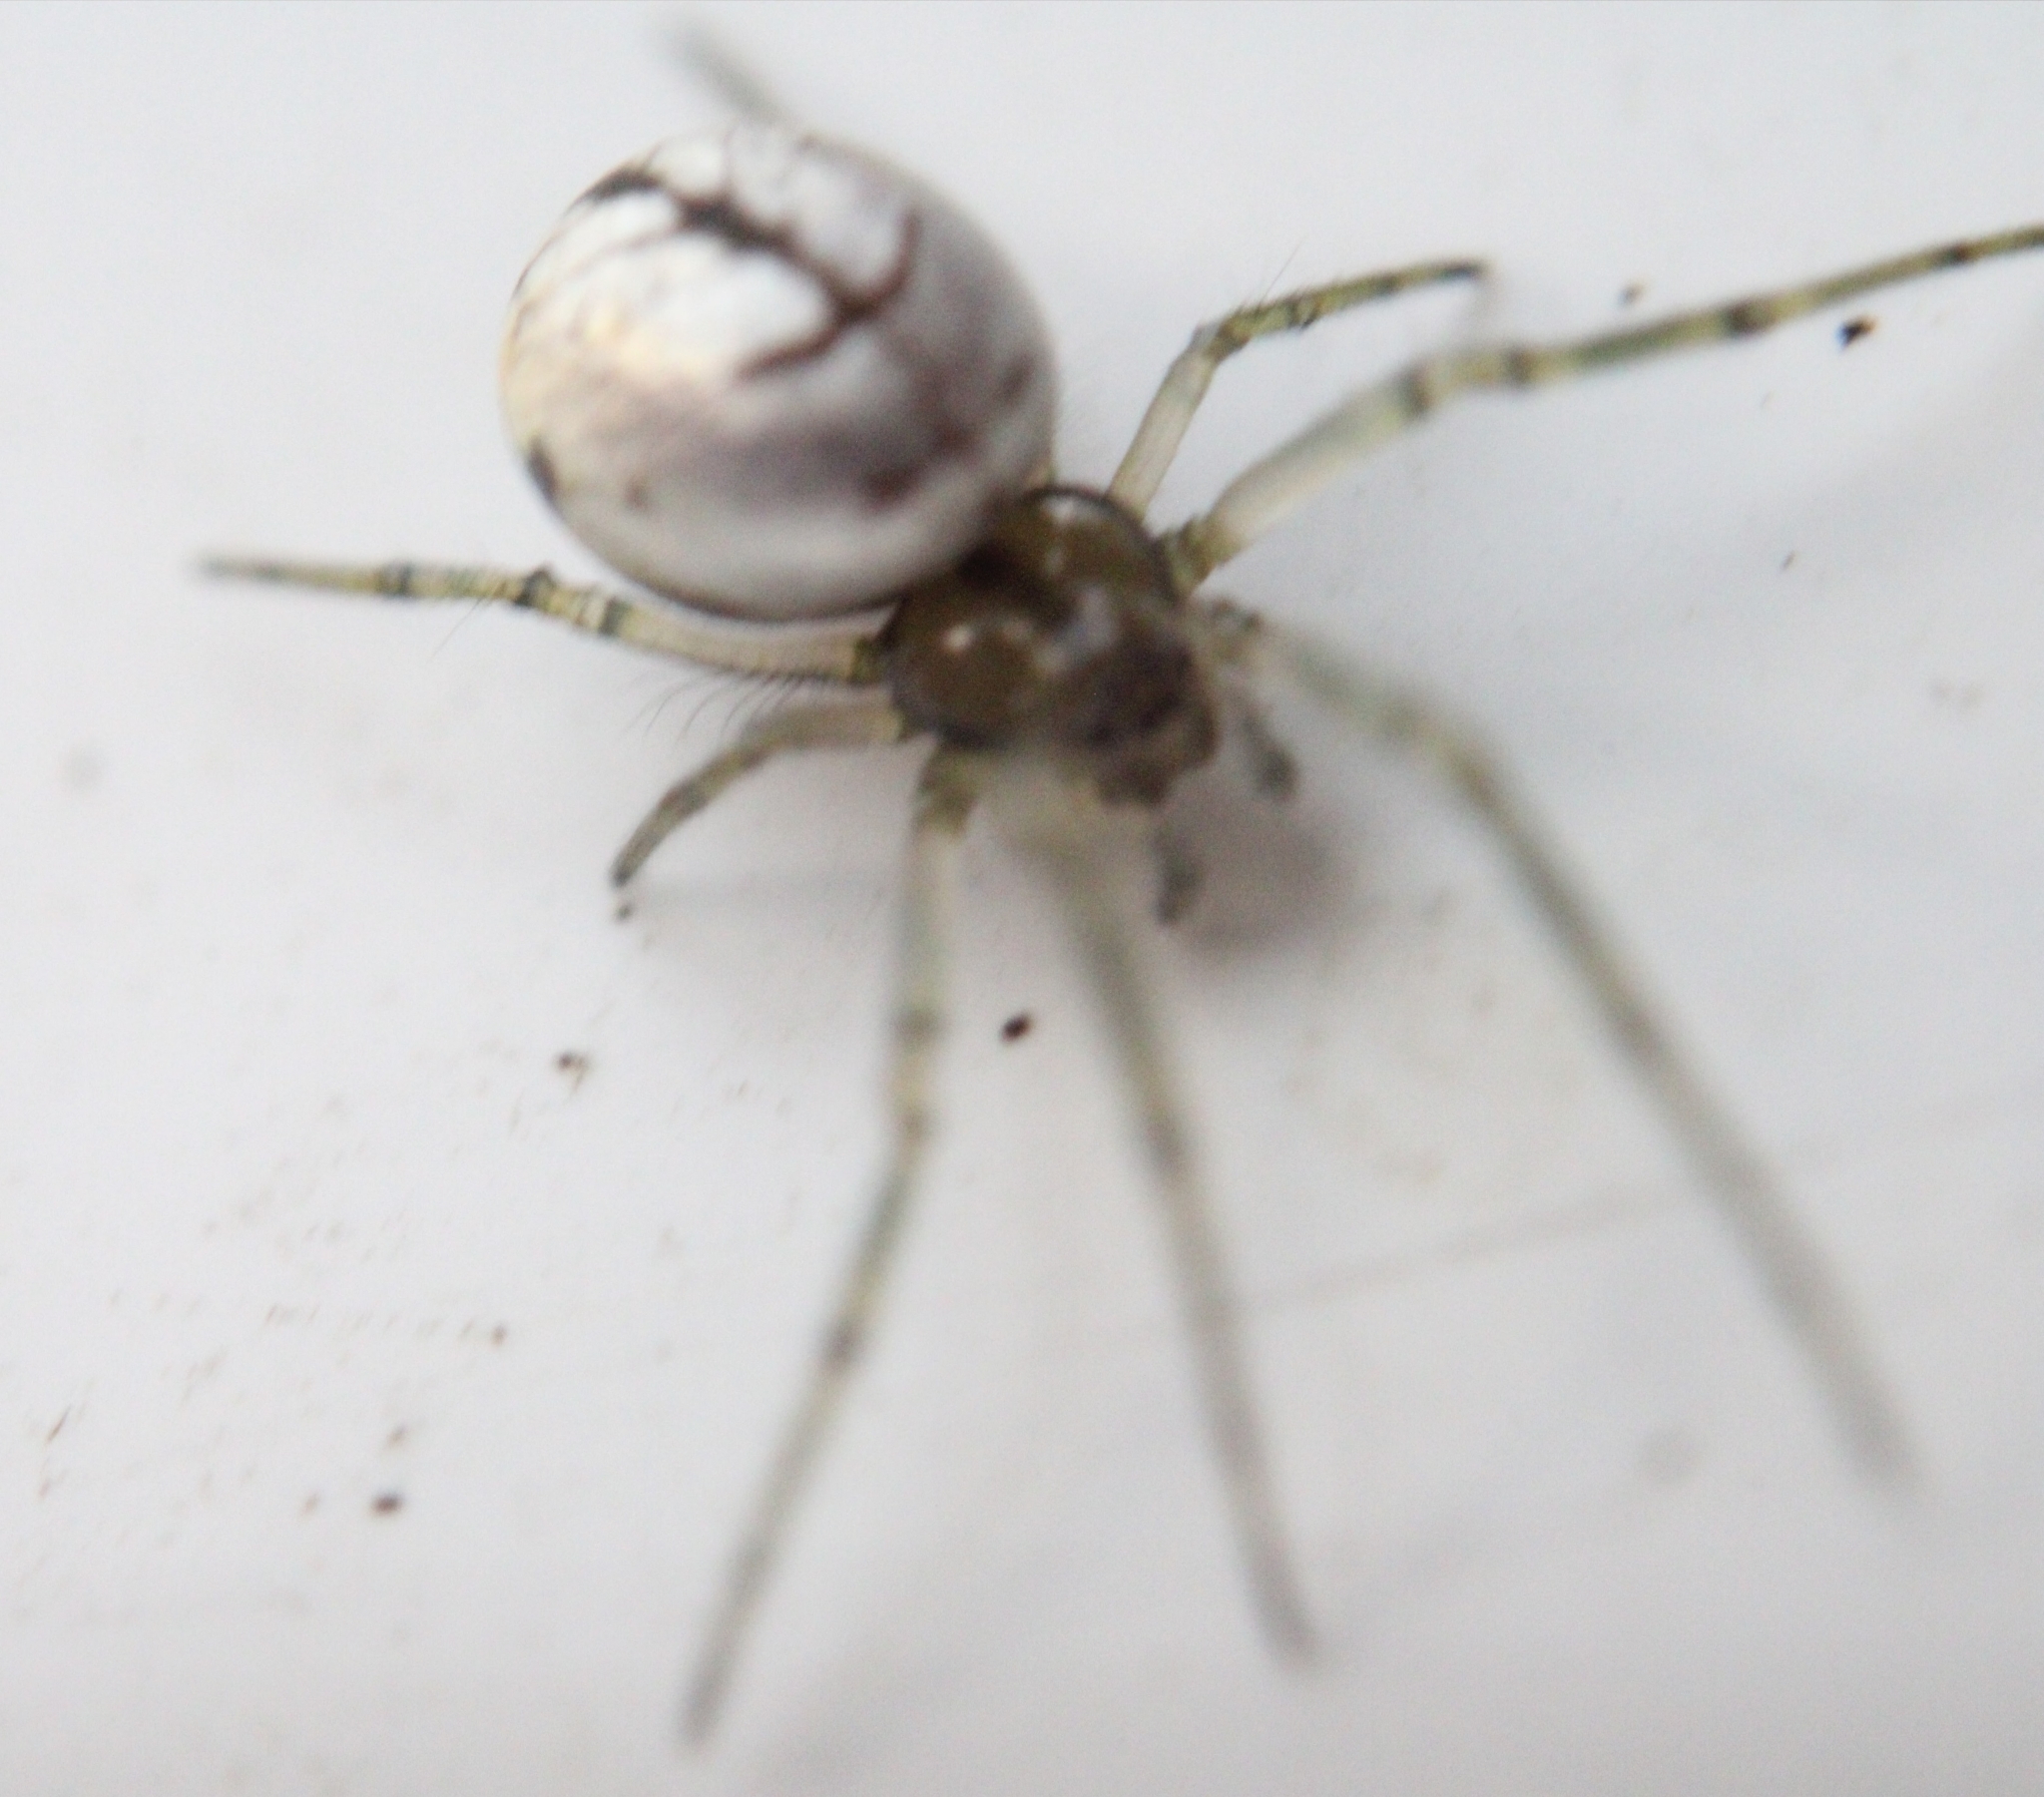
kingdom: Animalia
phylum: Arthropoda
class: Arachnida
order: Araneae
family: Tetragnathidae
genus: Leucauge
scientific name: Leucauge venusta
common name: Longjawed orb weavers
